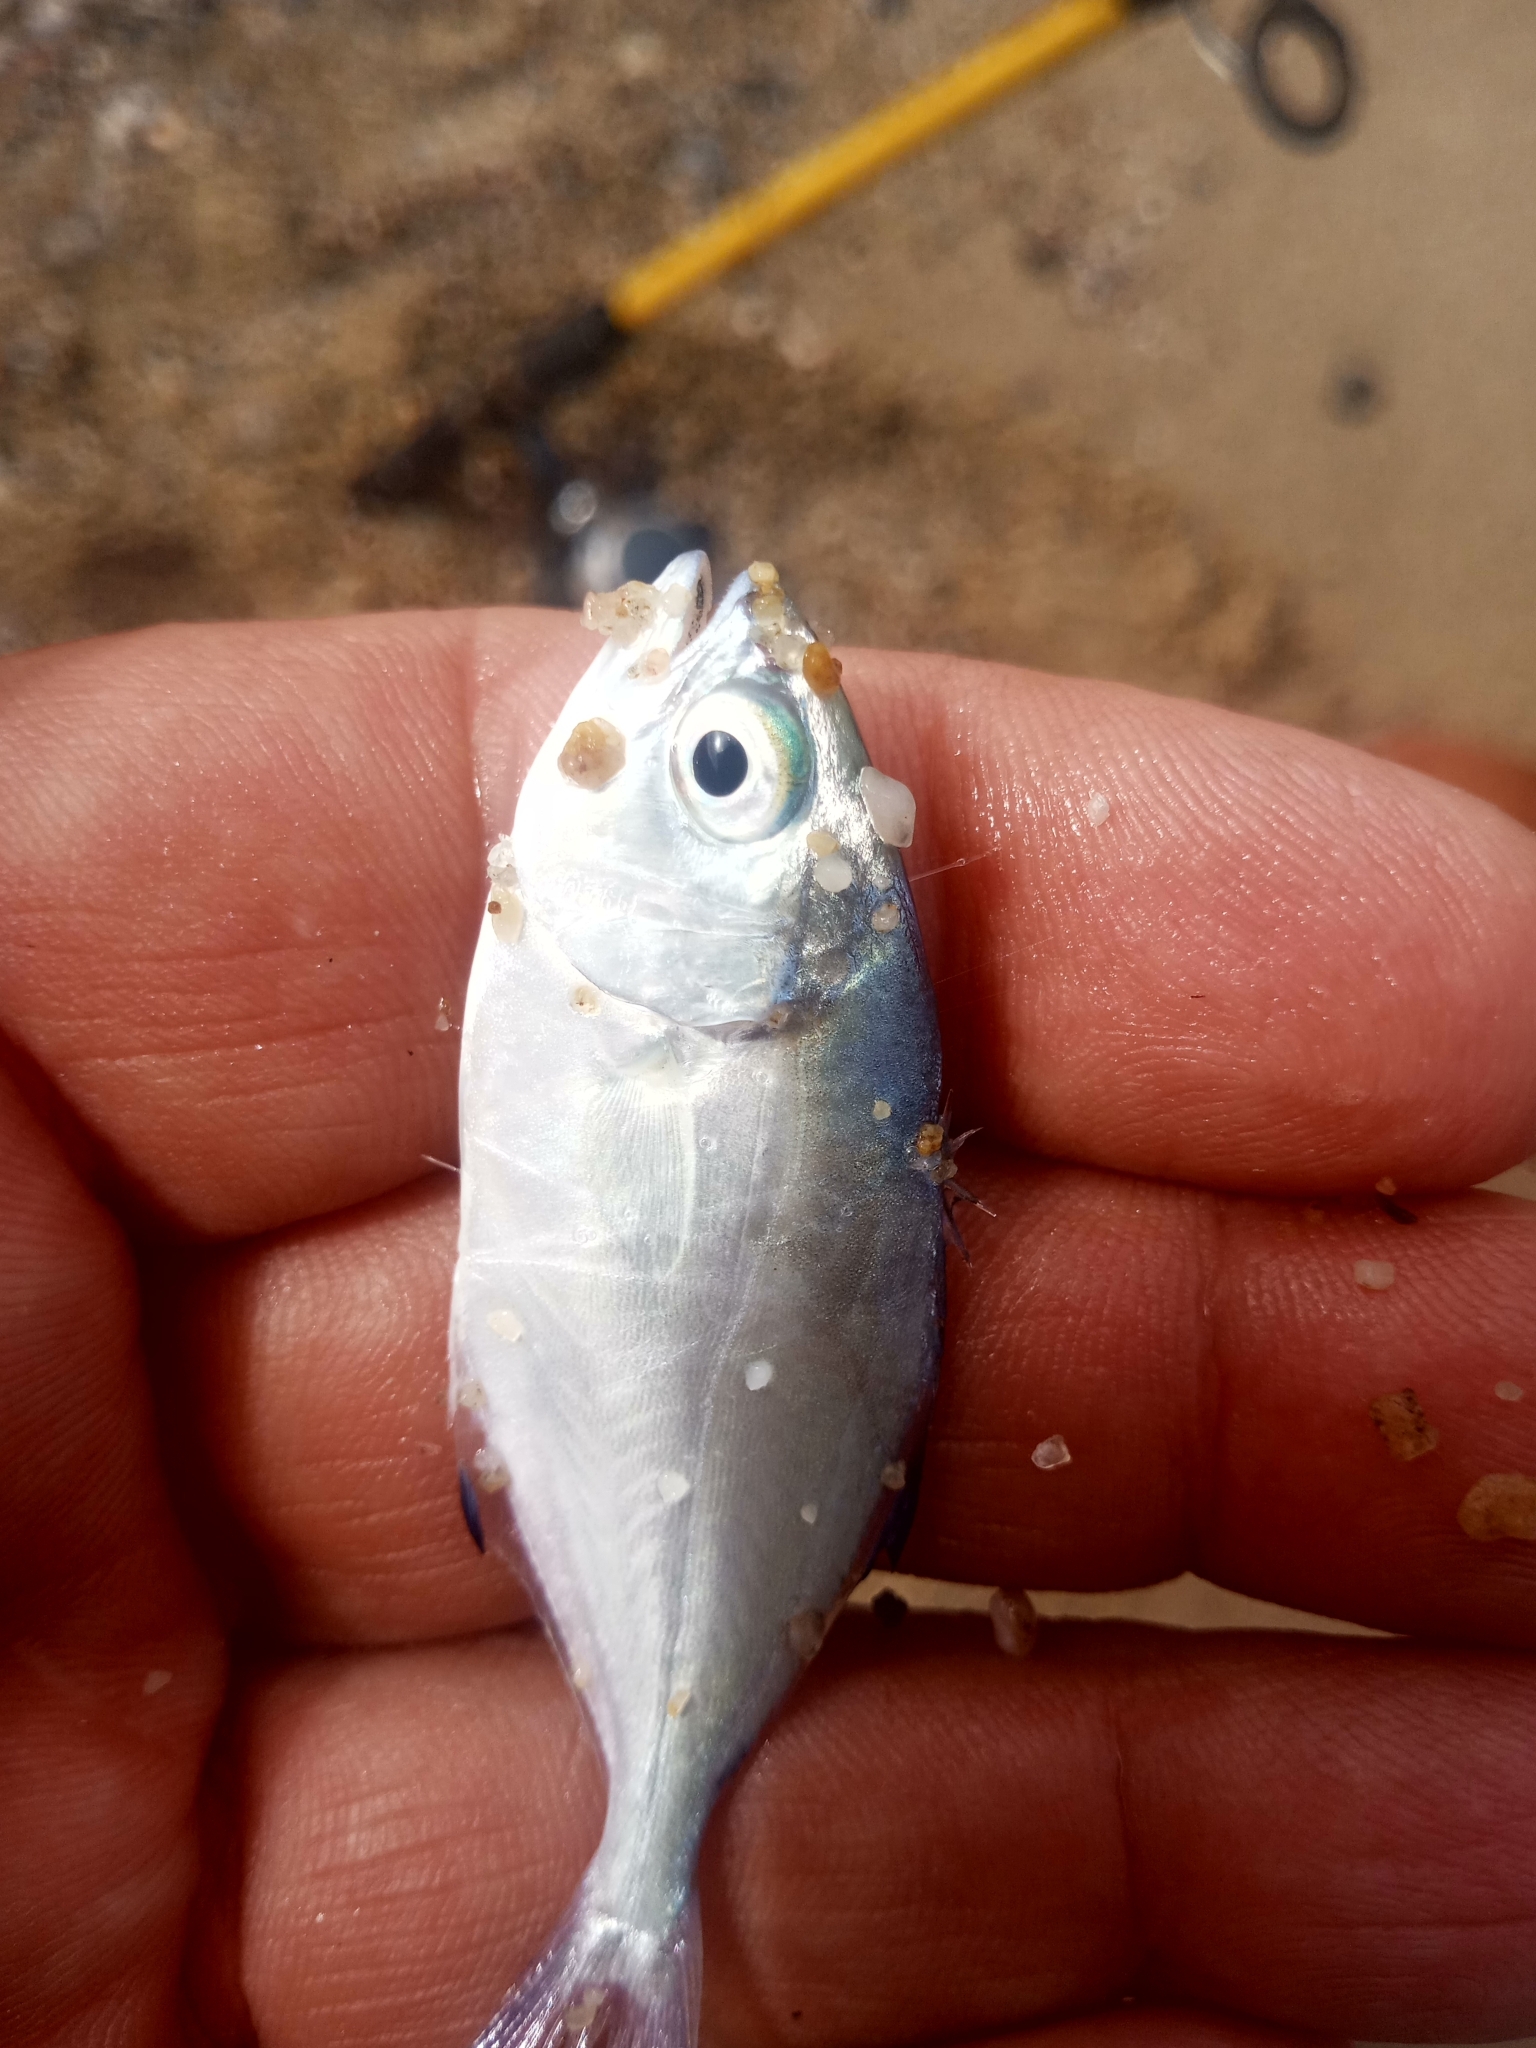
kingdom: Animalia
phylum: Chordata
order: Perciformes
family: Carangidae
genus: Trachinotus
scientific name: Trachinotus ovatus
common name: Pompano
